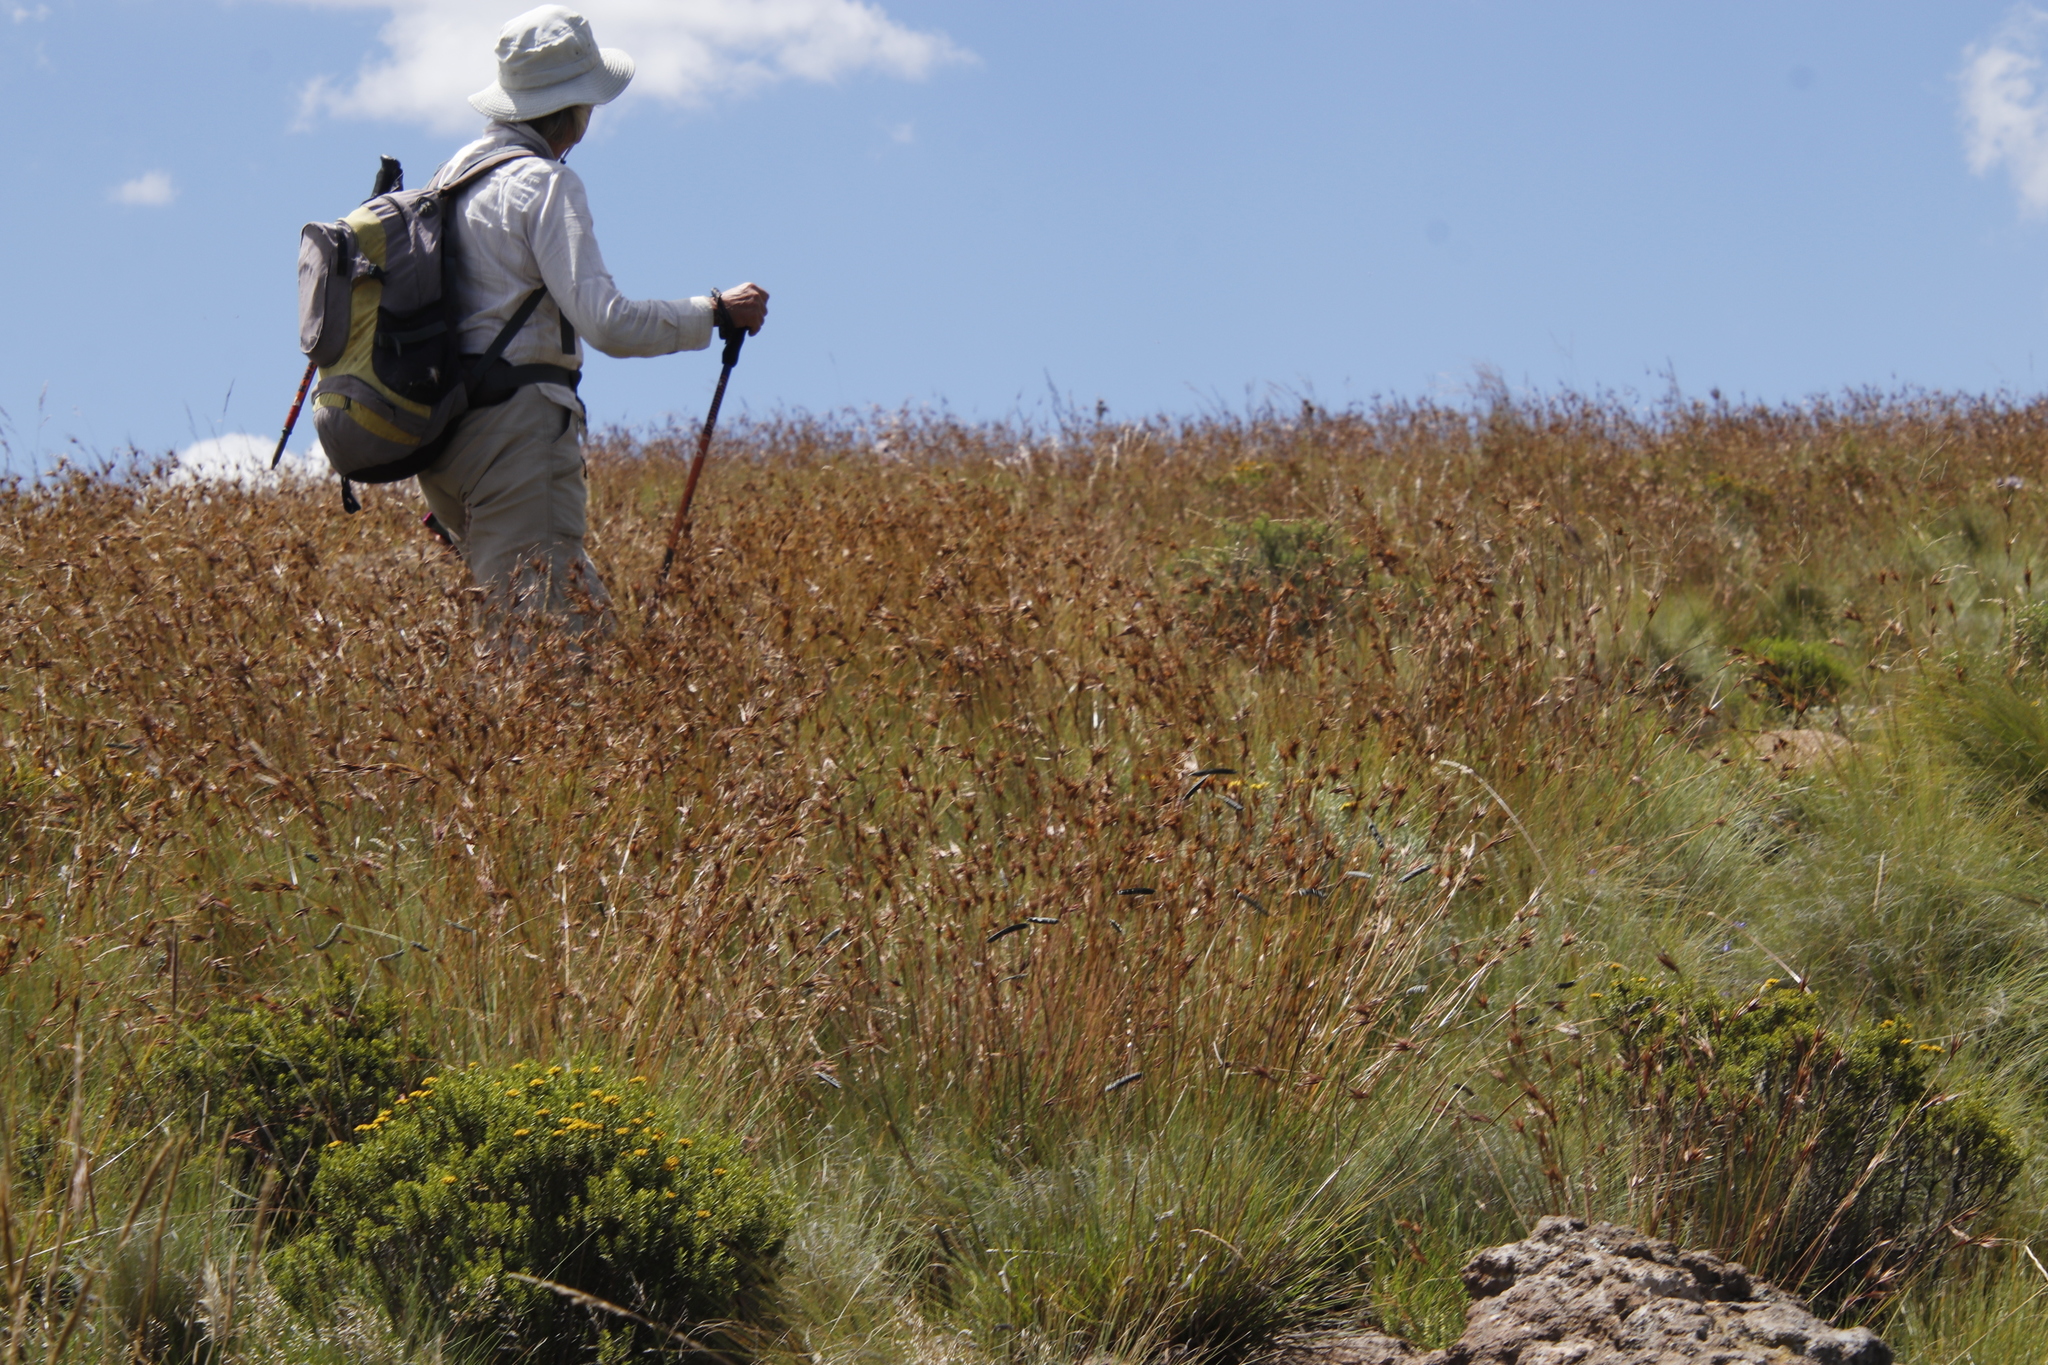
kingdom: Plantae
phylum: Tracheophyta
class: Liliopsida
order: Poales
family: Poaceae
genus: Themeda
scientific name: Themeda triandra
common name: Kangaroo grass
